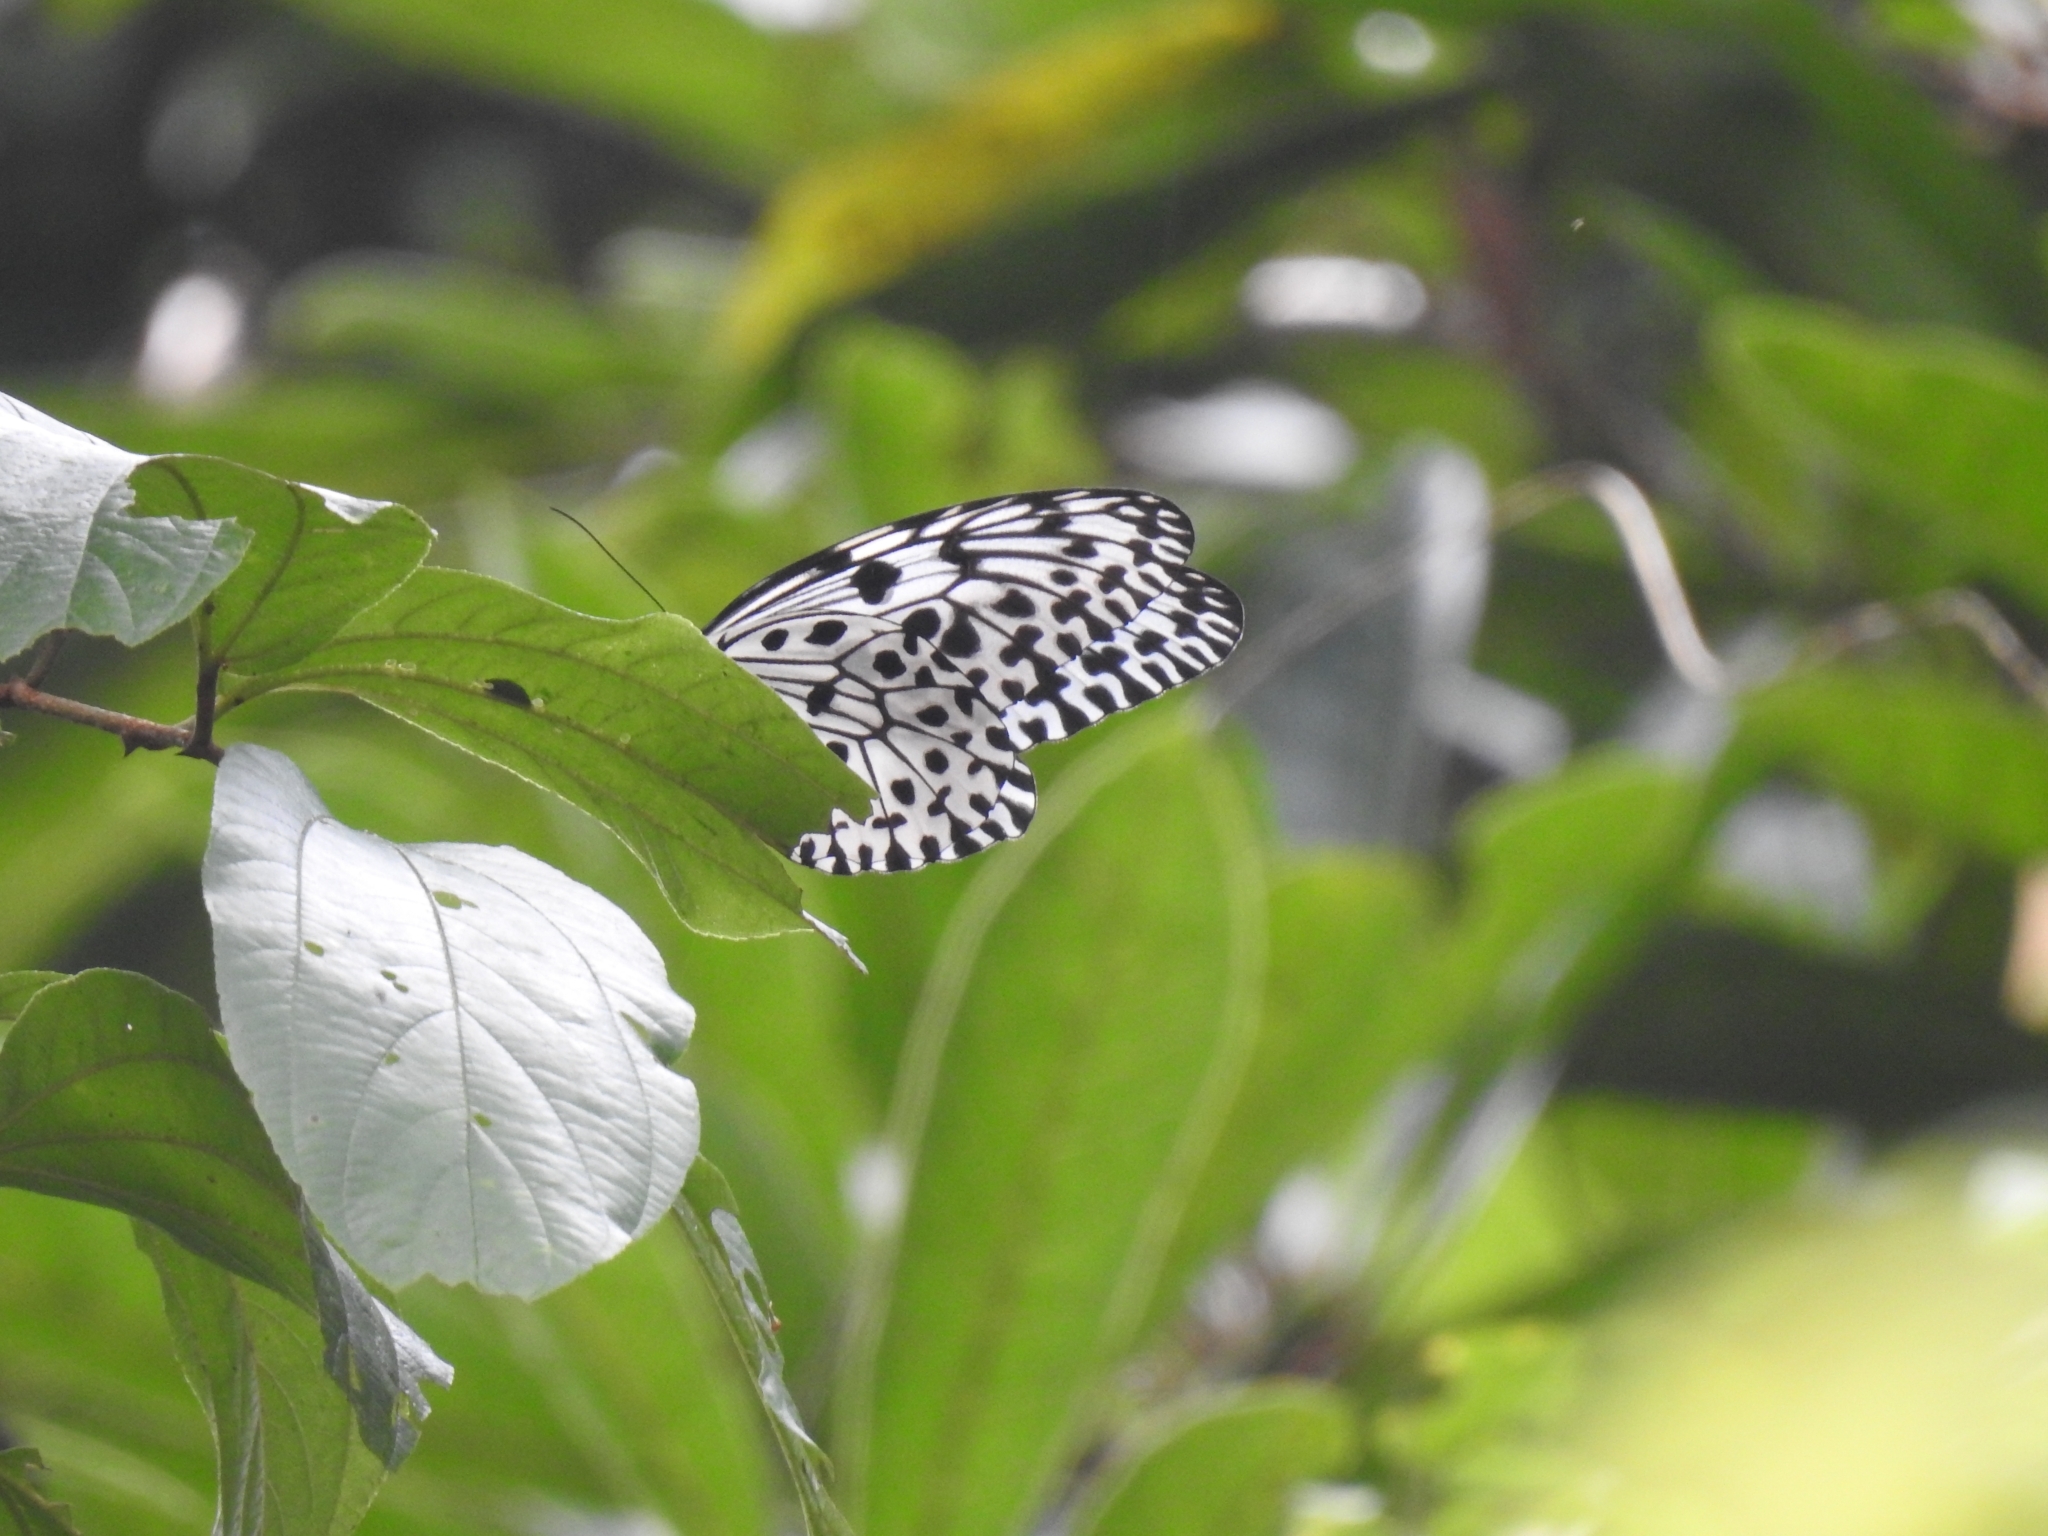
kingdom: Animalia
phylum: Arthropoda
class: Insecta
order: Lepidoptera
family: Nymphalidae
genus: Idea
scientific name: Idea malabarica
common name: Malabar tree-nymph
